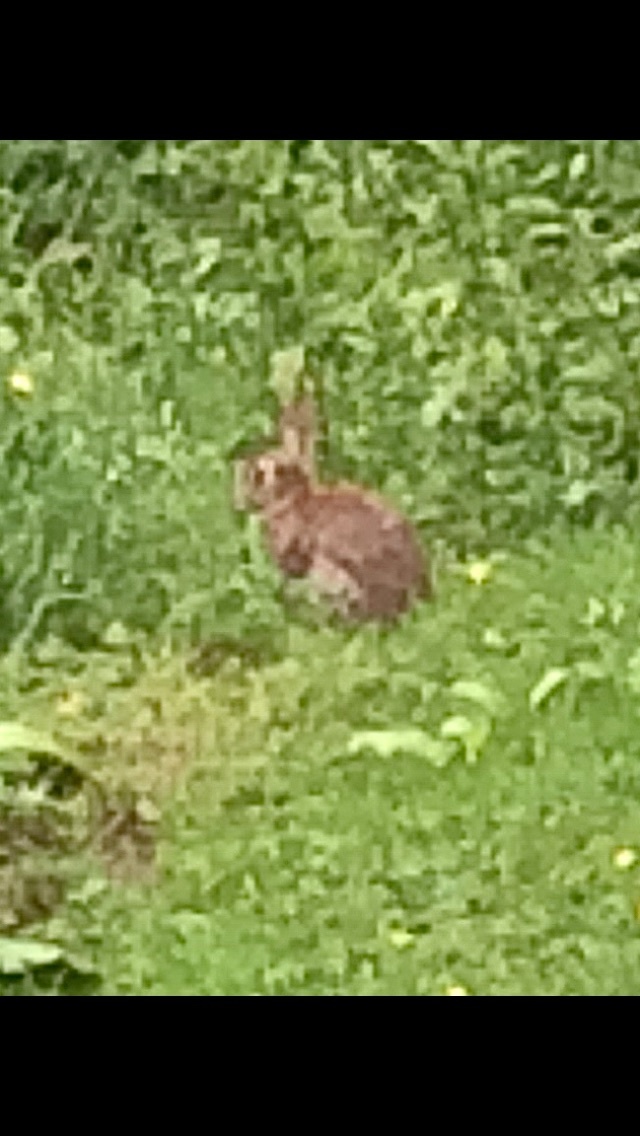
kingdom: Animalia
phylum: Chordata
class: Mammalia
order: Lagomorpha
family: Leporidae
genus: Oryctolagus
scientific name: Oryctolagus cuniculus
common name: European rabbit
